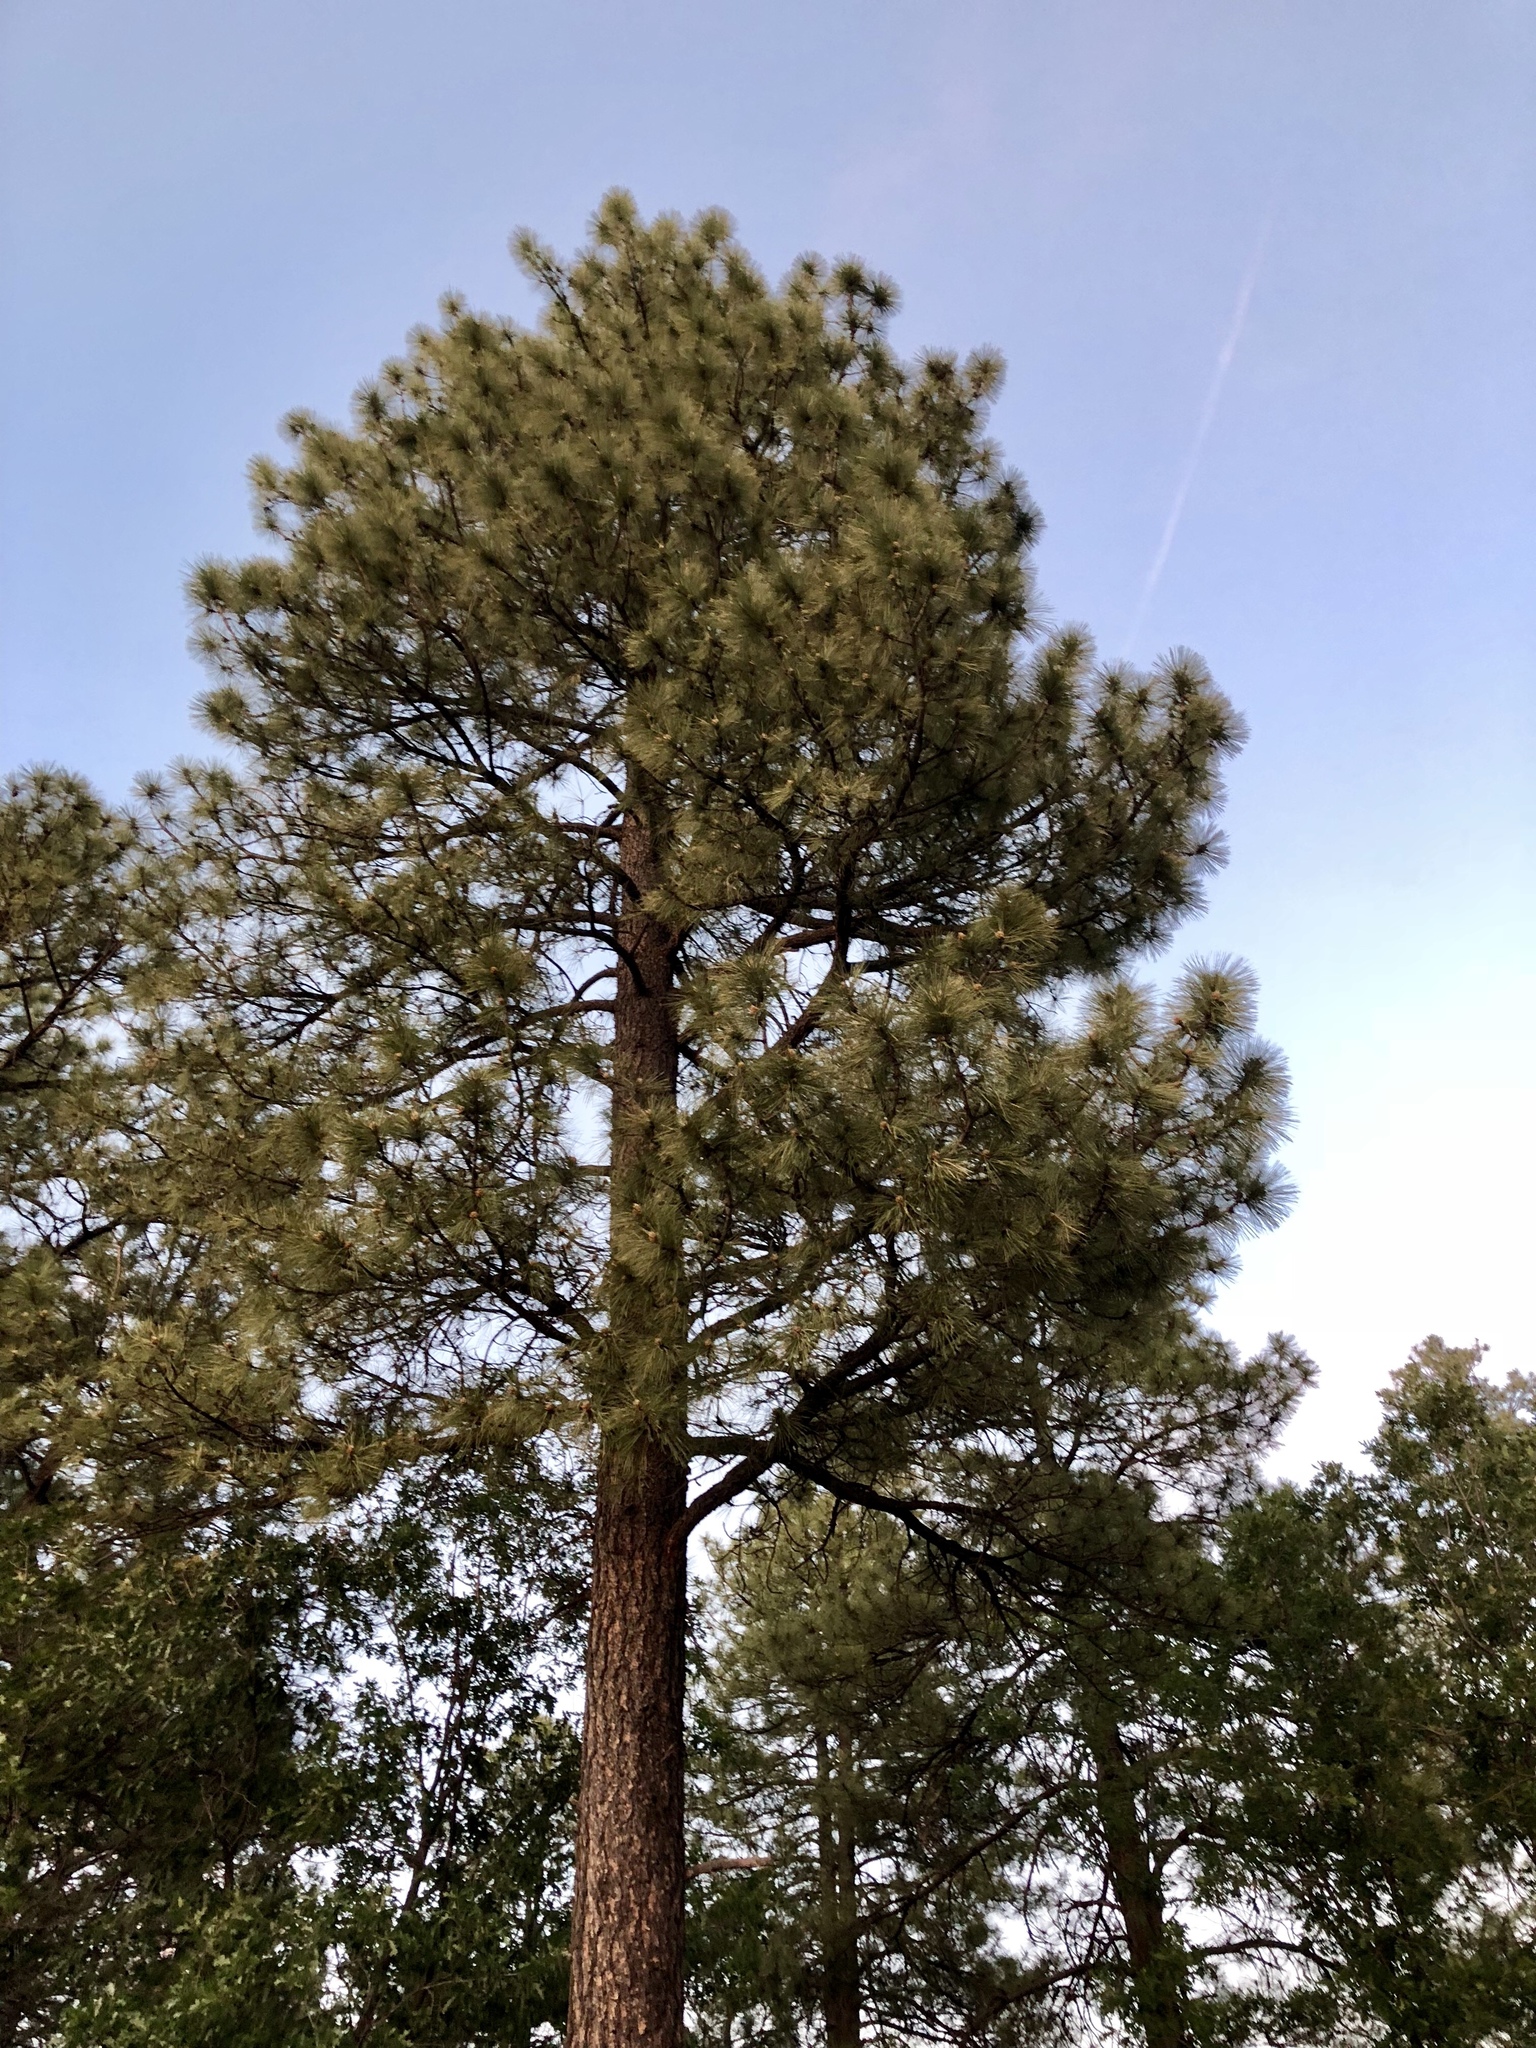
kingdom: Plantae
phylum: Tracheophyta
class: Pinopsida
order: Pinales
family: Pinaceae
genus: Pinus
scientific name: Pinus ponderosa
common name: Western yellow-pine
